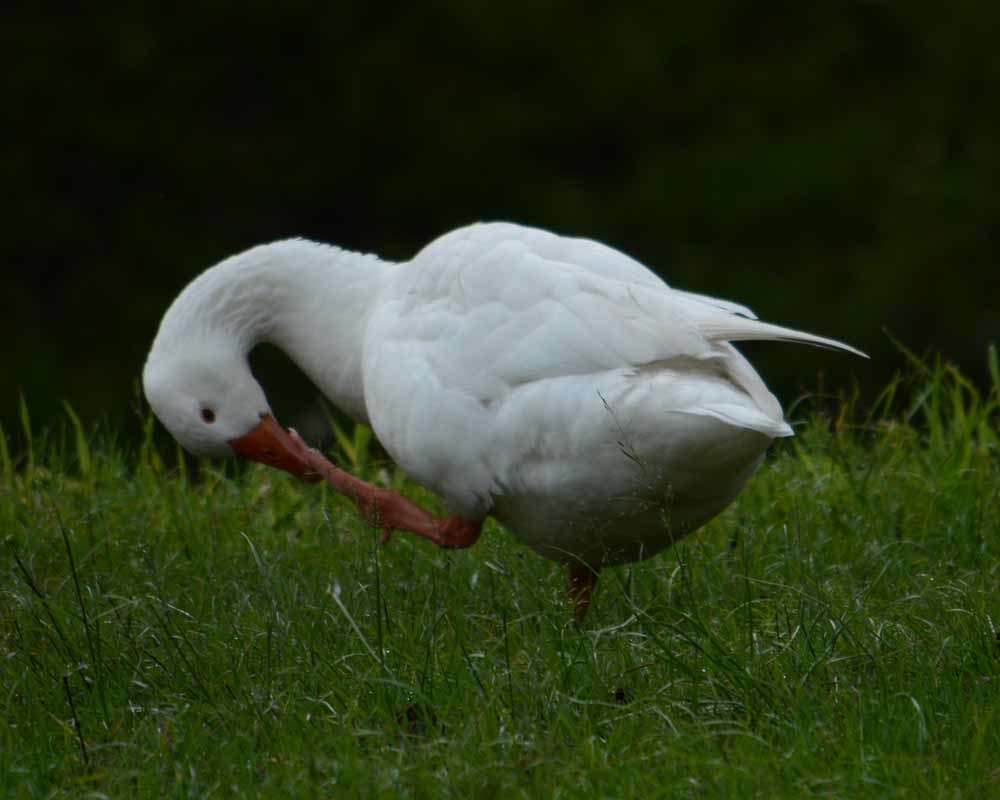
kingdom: Animalia
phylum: Chordata
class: Aves
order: Anseriformes
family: Anatidae
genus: Anser
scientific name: Anser anser
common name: Greylag goose
